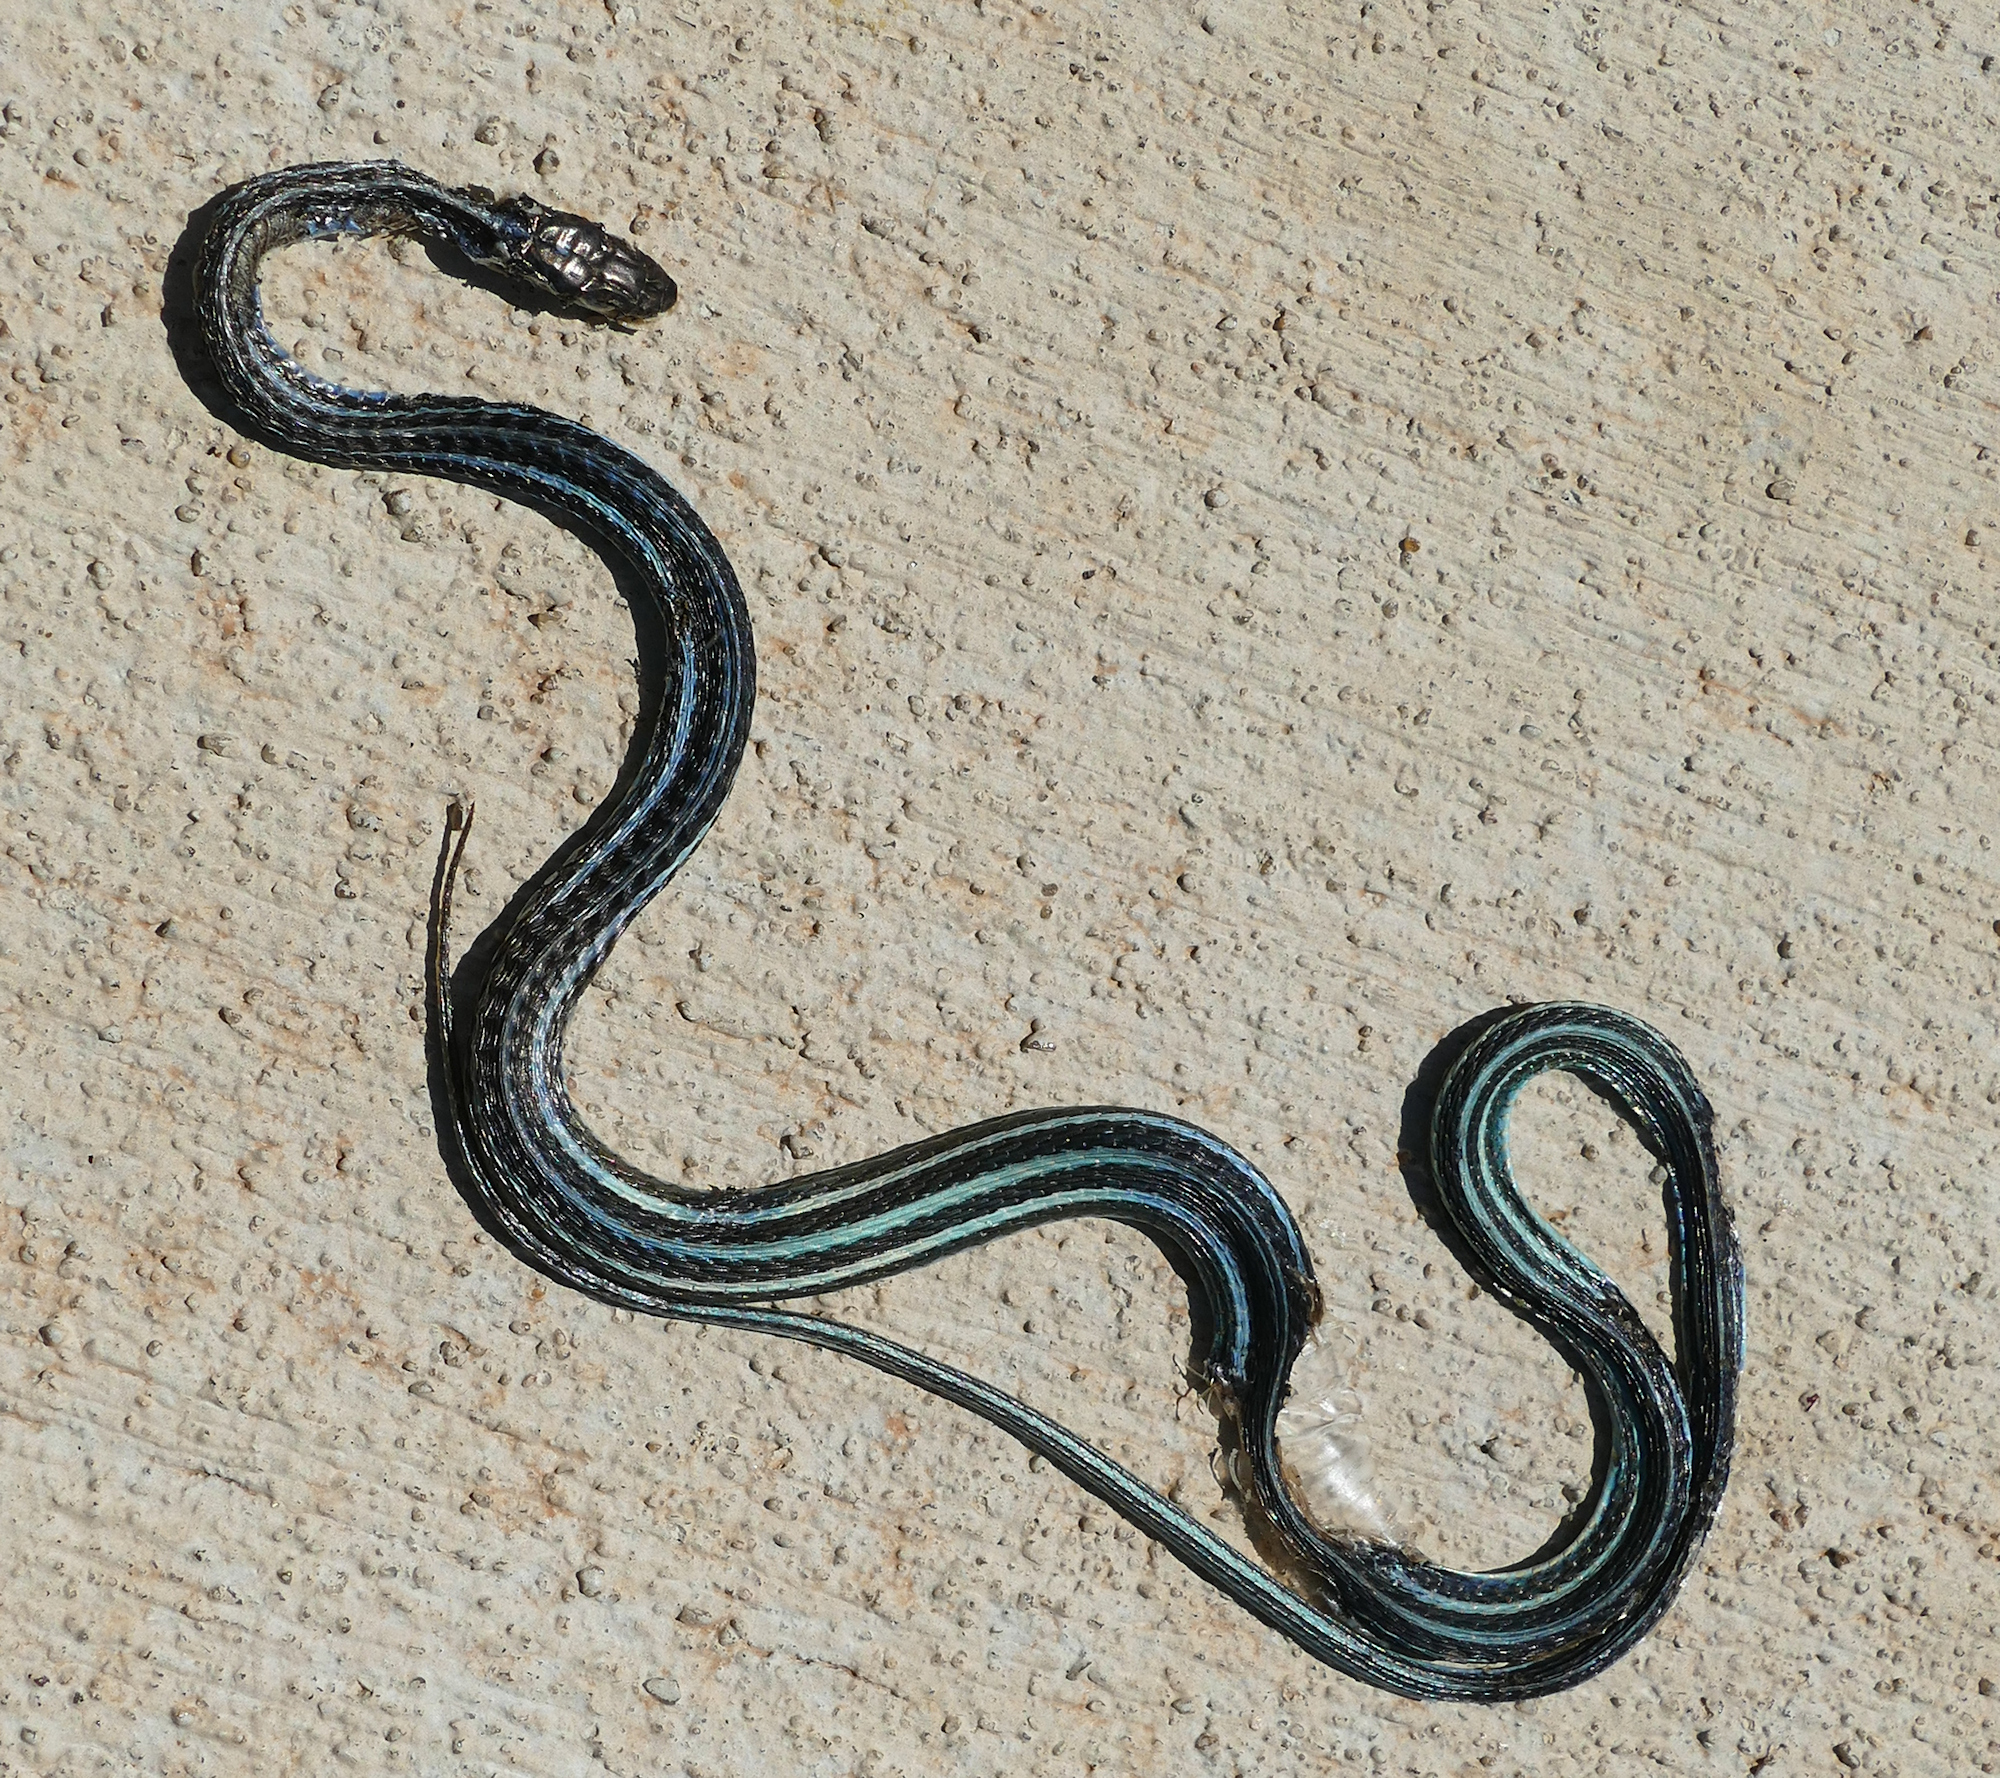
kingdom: Animalia
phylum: Chordata
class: Squamata
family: Colubridae
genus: Thamnophis
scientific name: Thamnophis proximus
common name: Western ribbon snake
